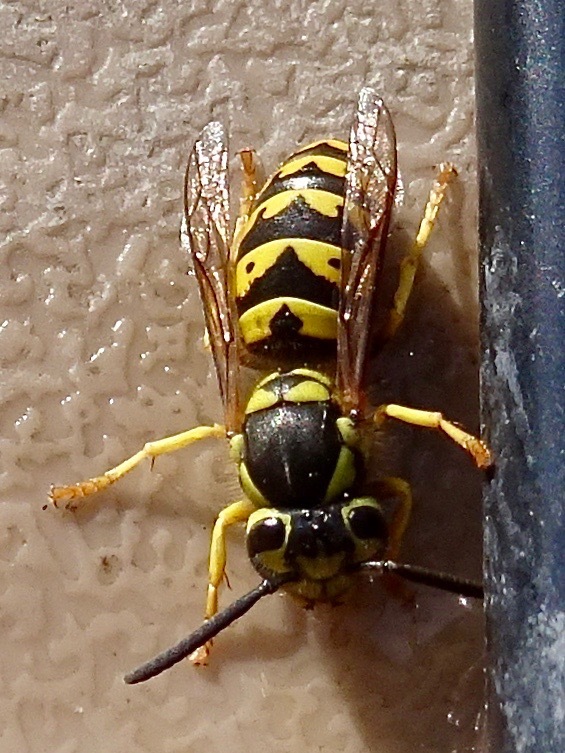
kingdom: Animalia
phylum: Arthropoda
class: Insecta
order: Hymenoptera
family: Vespidae
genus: Vespula
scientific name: Vespula pensylvanica
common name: Western yellowjacket
